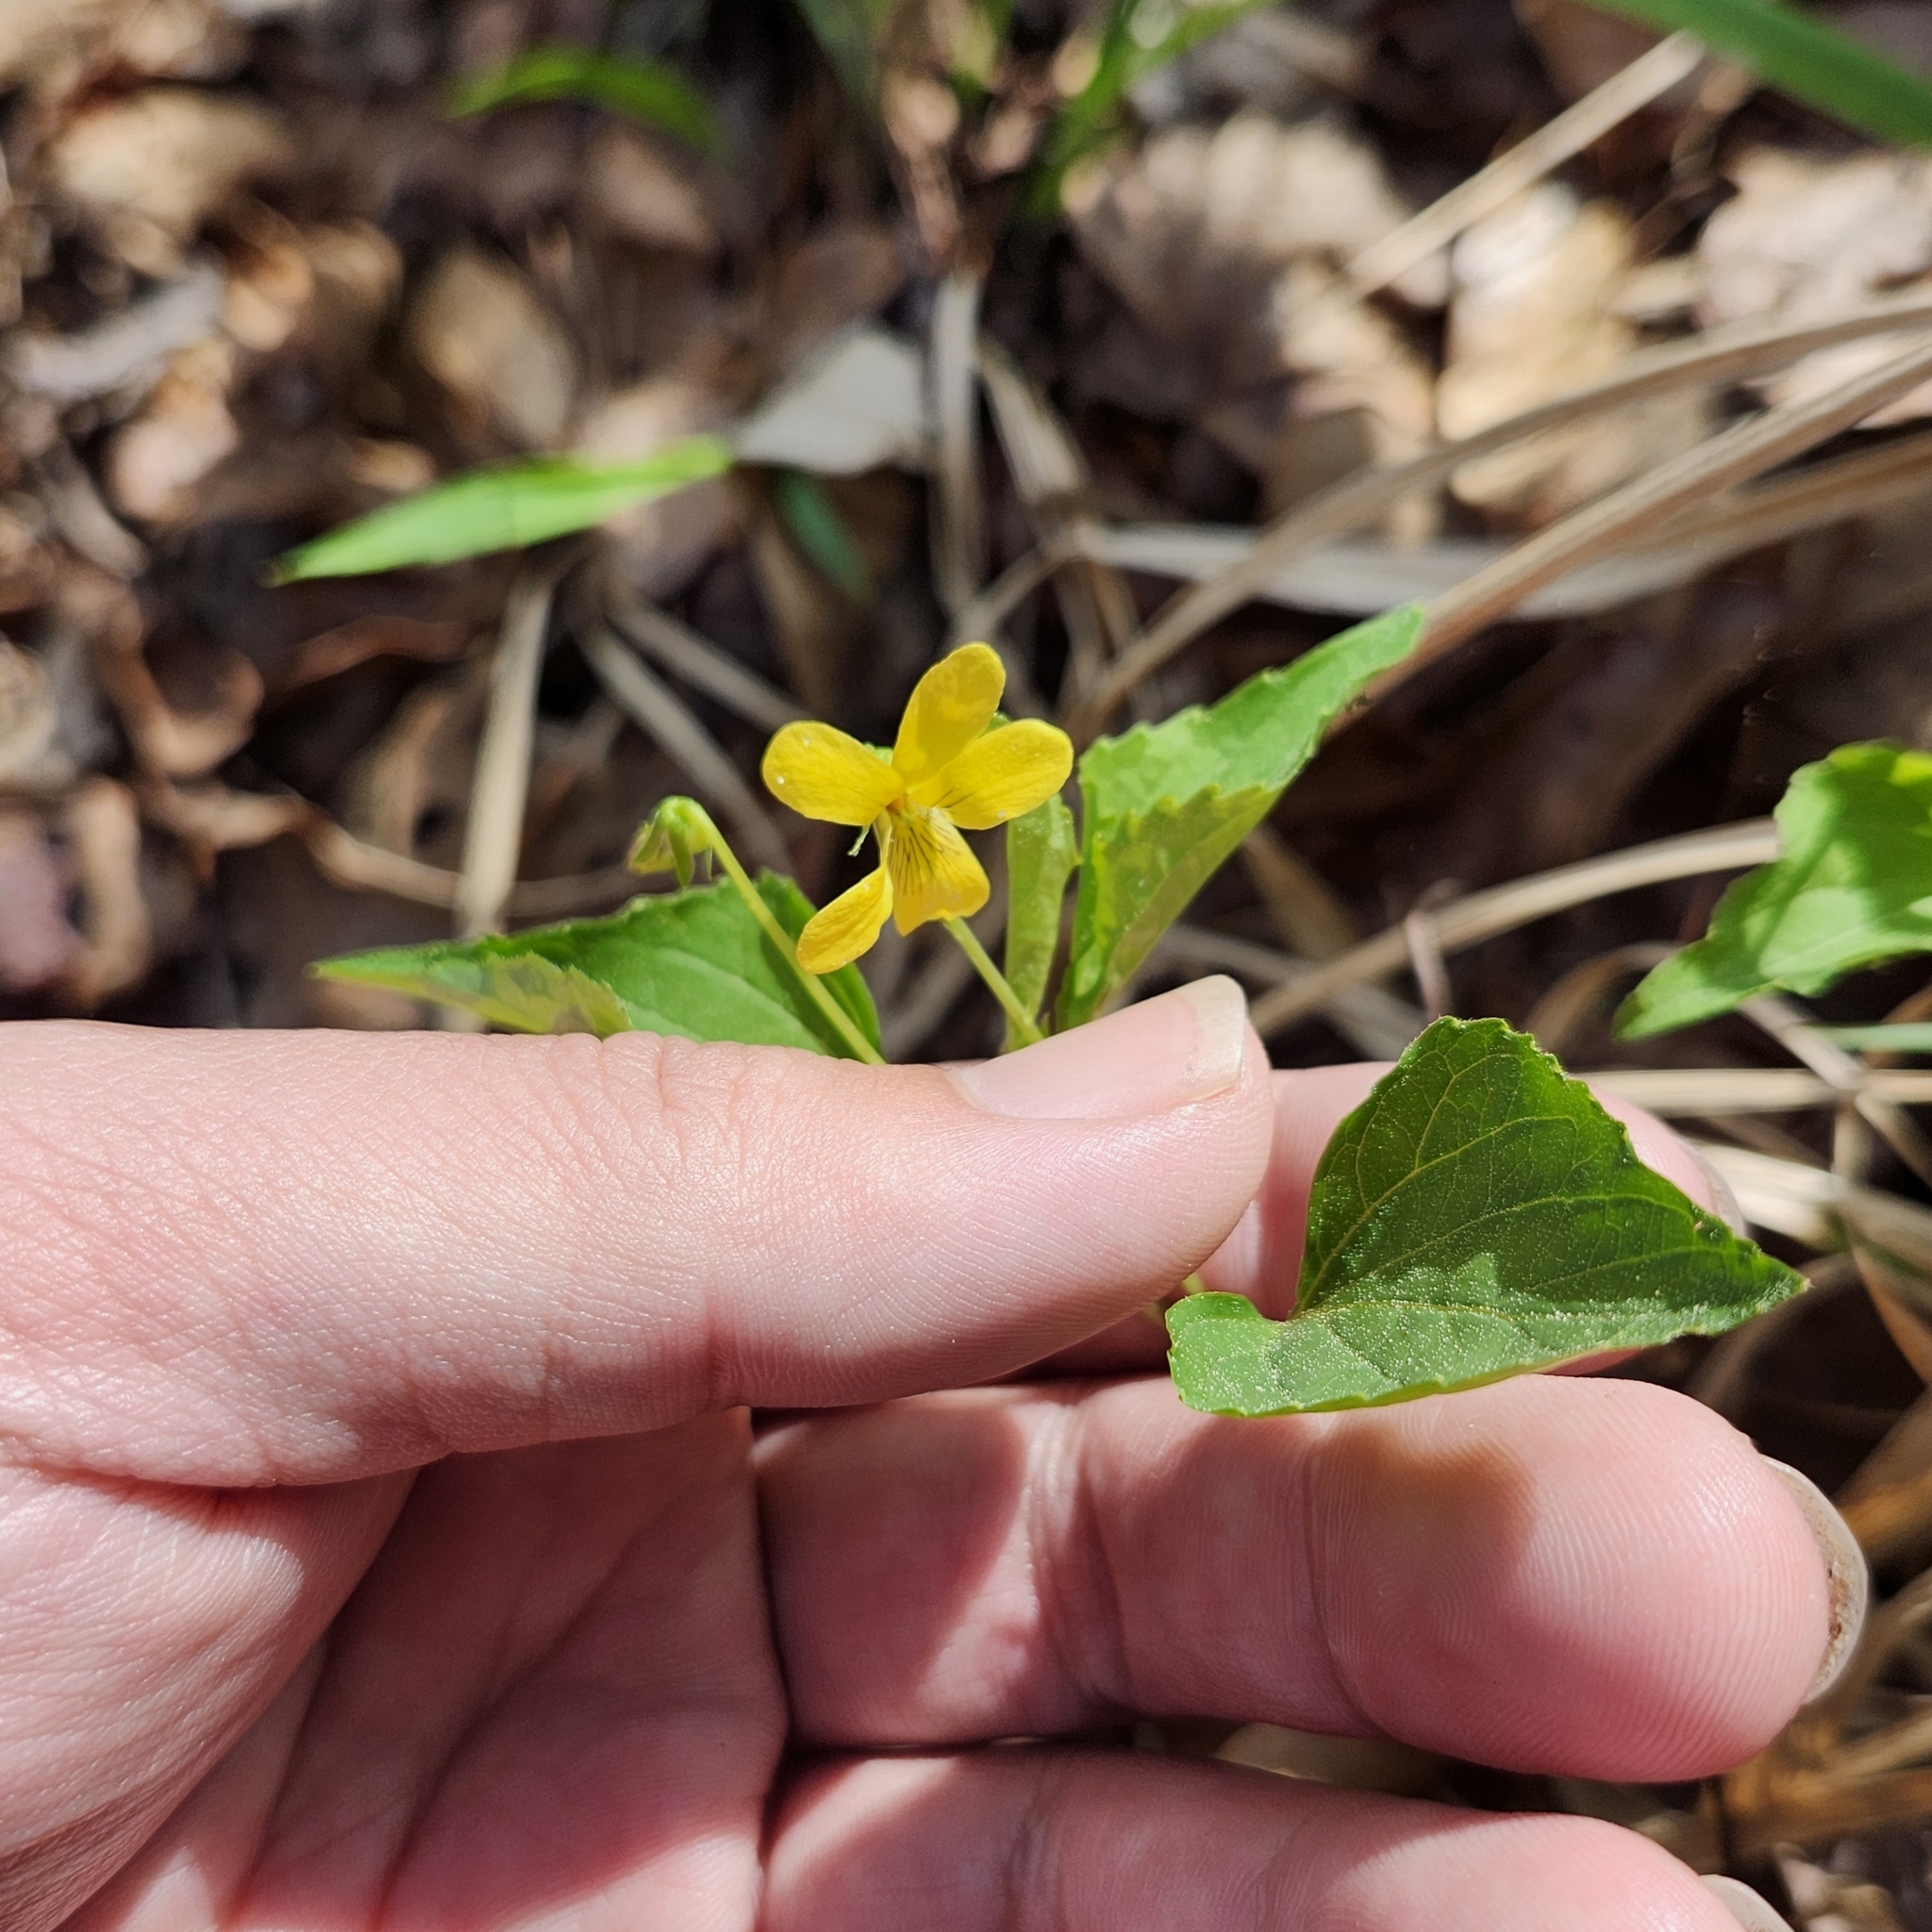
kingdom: Plantae
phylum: Tracheophyta
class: Magnoliopsida
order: Malpighiales
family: Violaceae
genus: Viola
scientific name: Viola tenuipes
